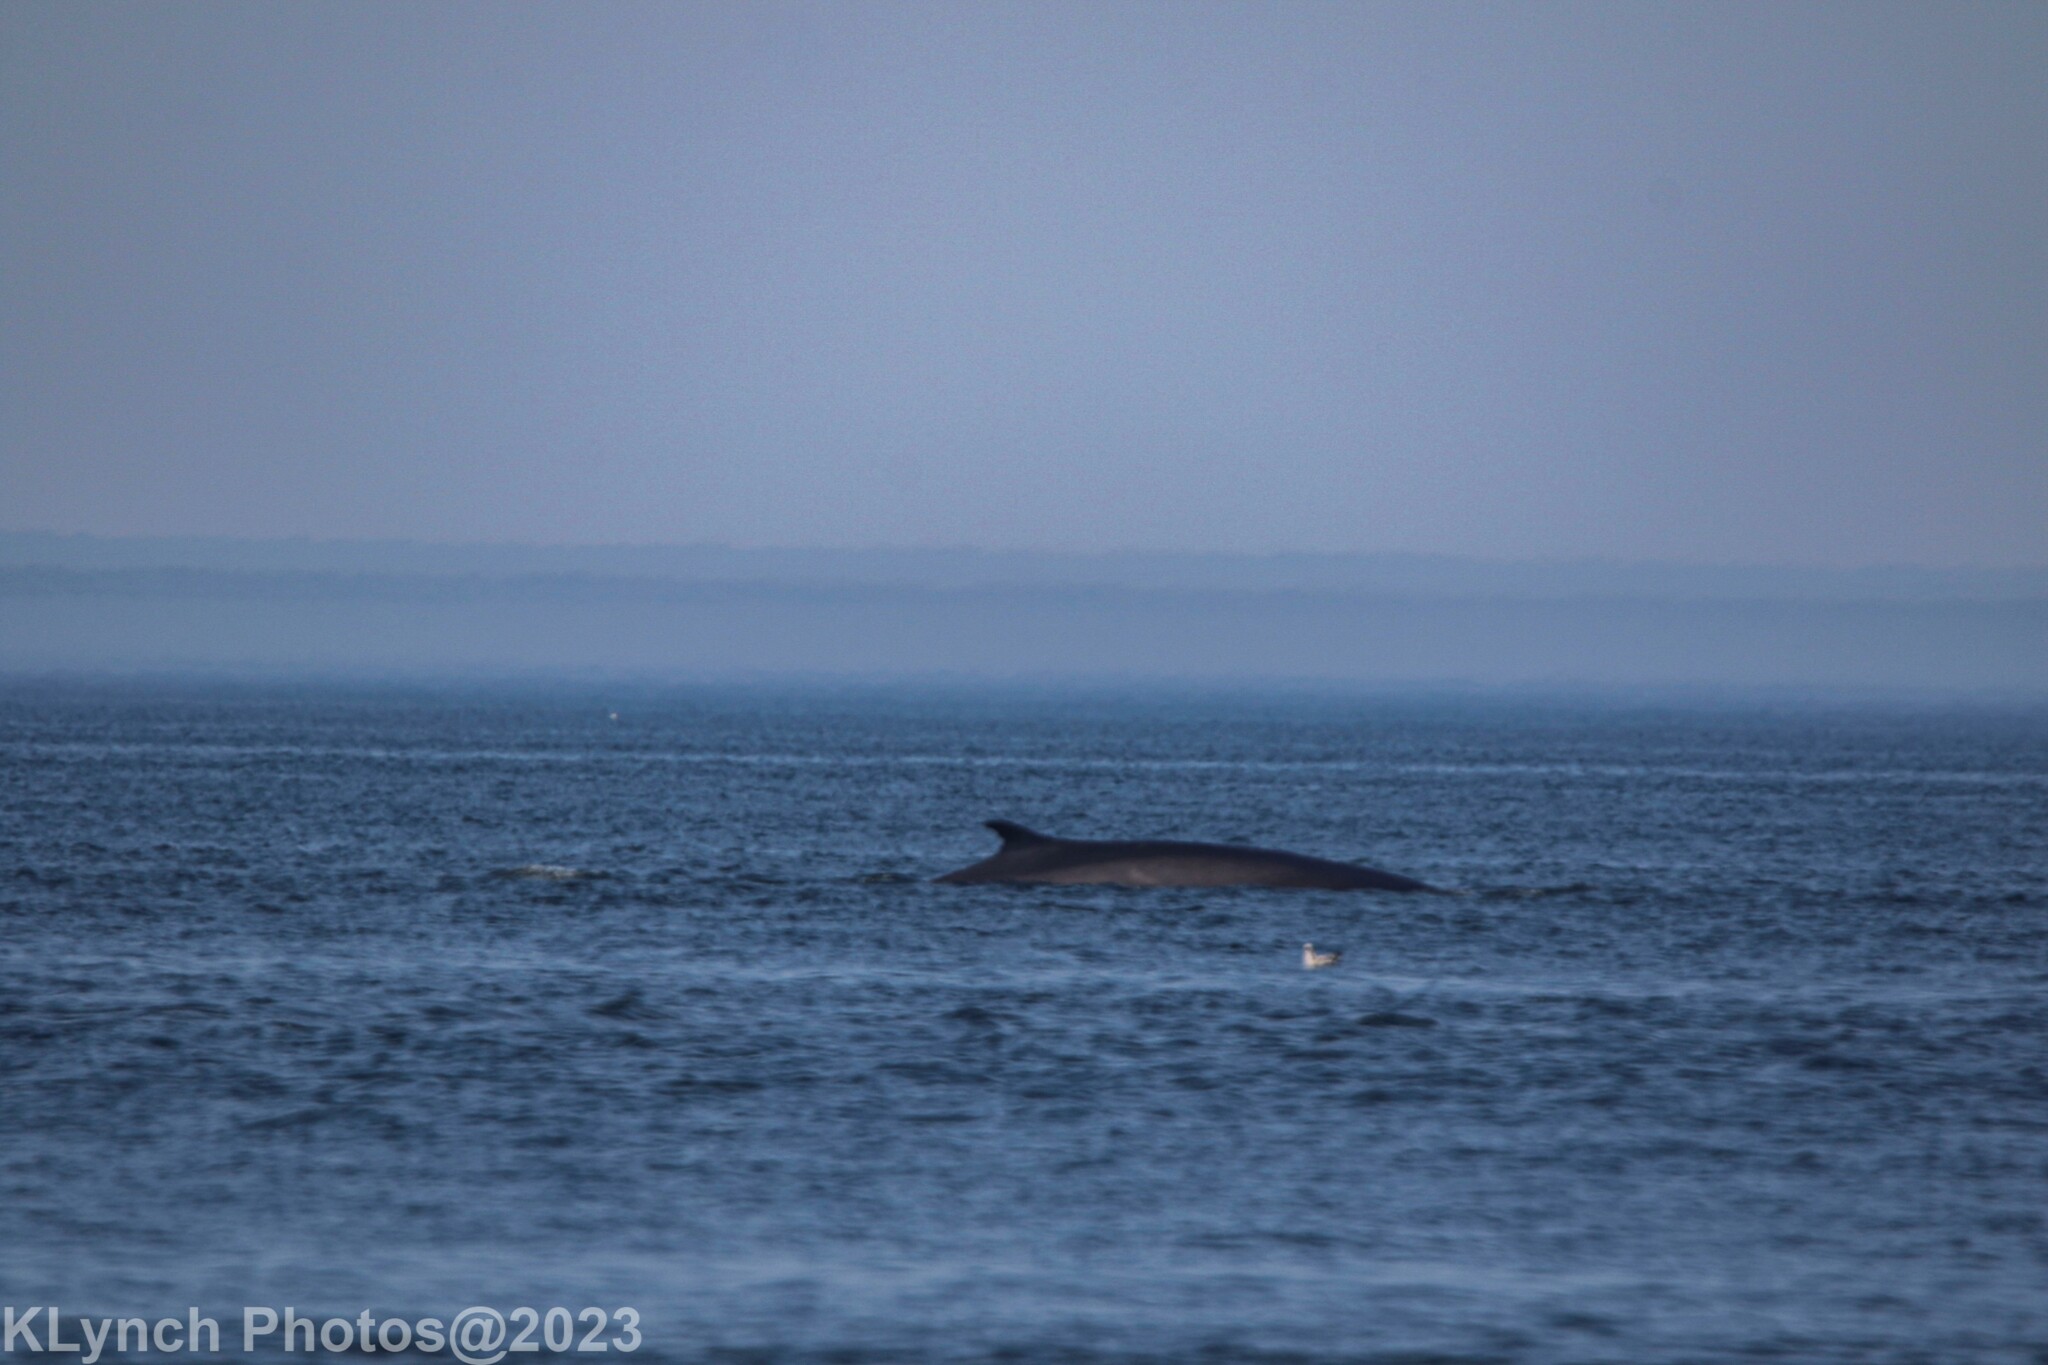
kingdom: Animalia
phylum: Chordata
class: Mammalia
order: Cetacea
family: Balaenopteridae
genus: Balaenoptera
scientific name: Balaenoptera physalus
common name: Fin whale
